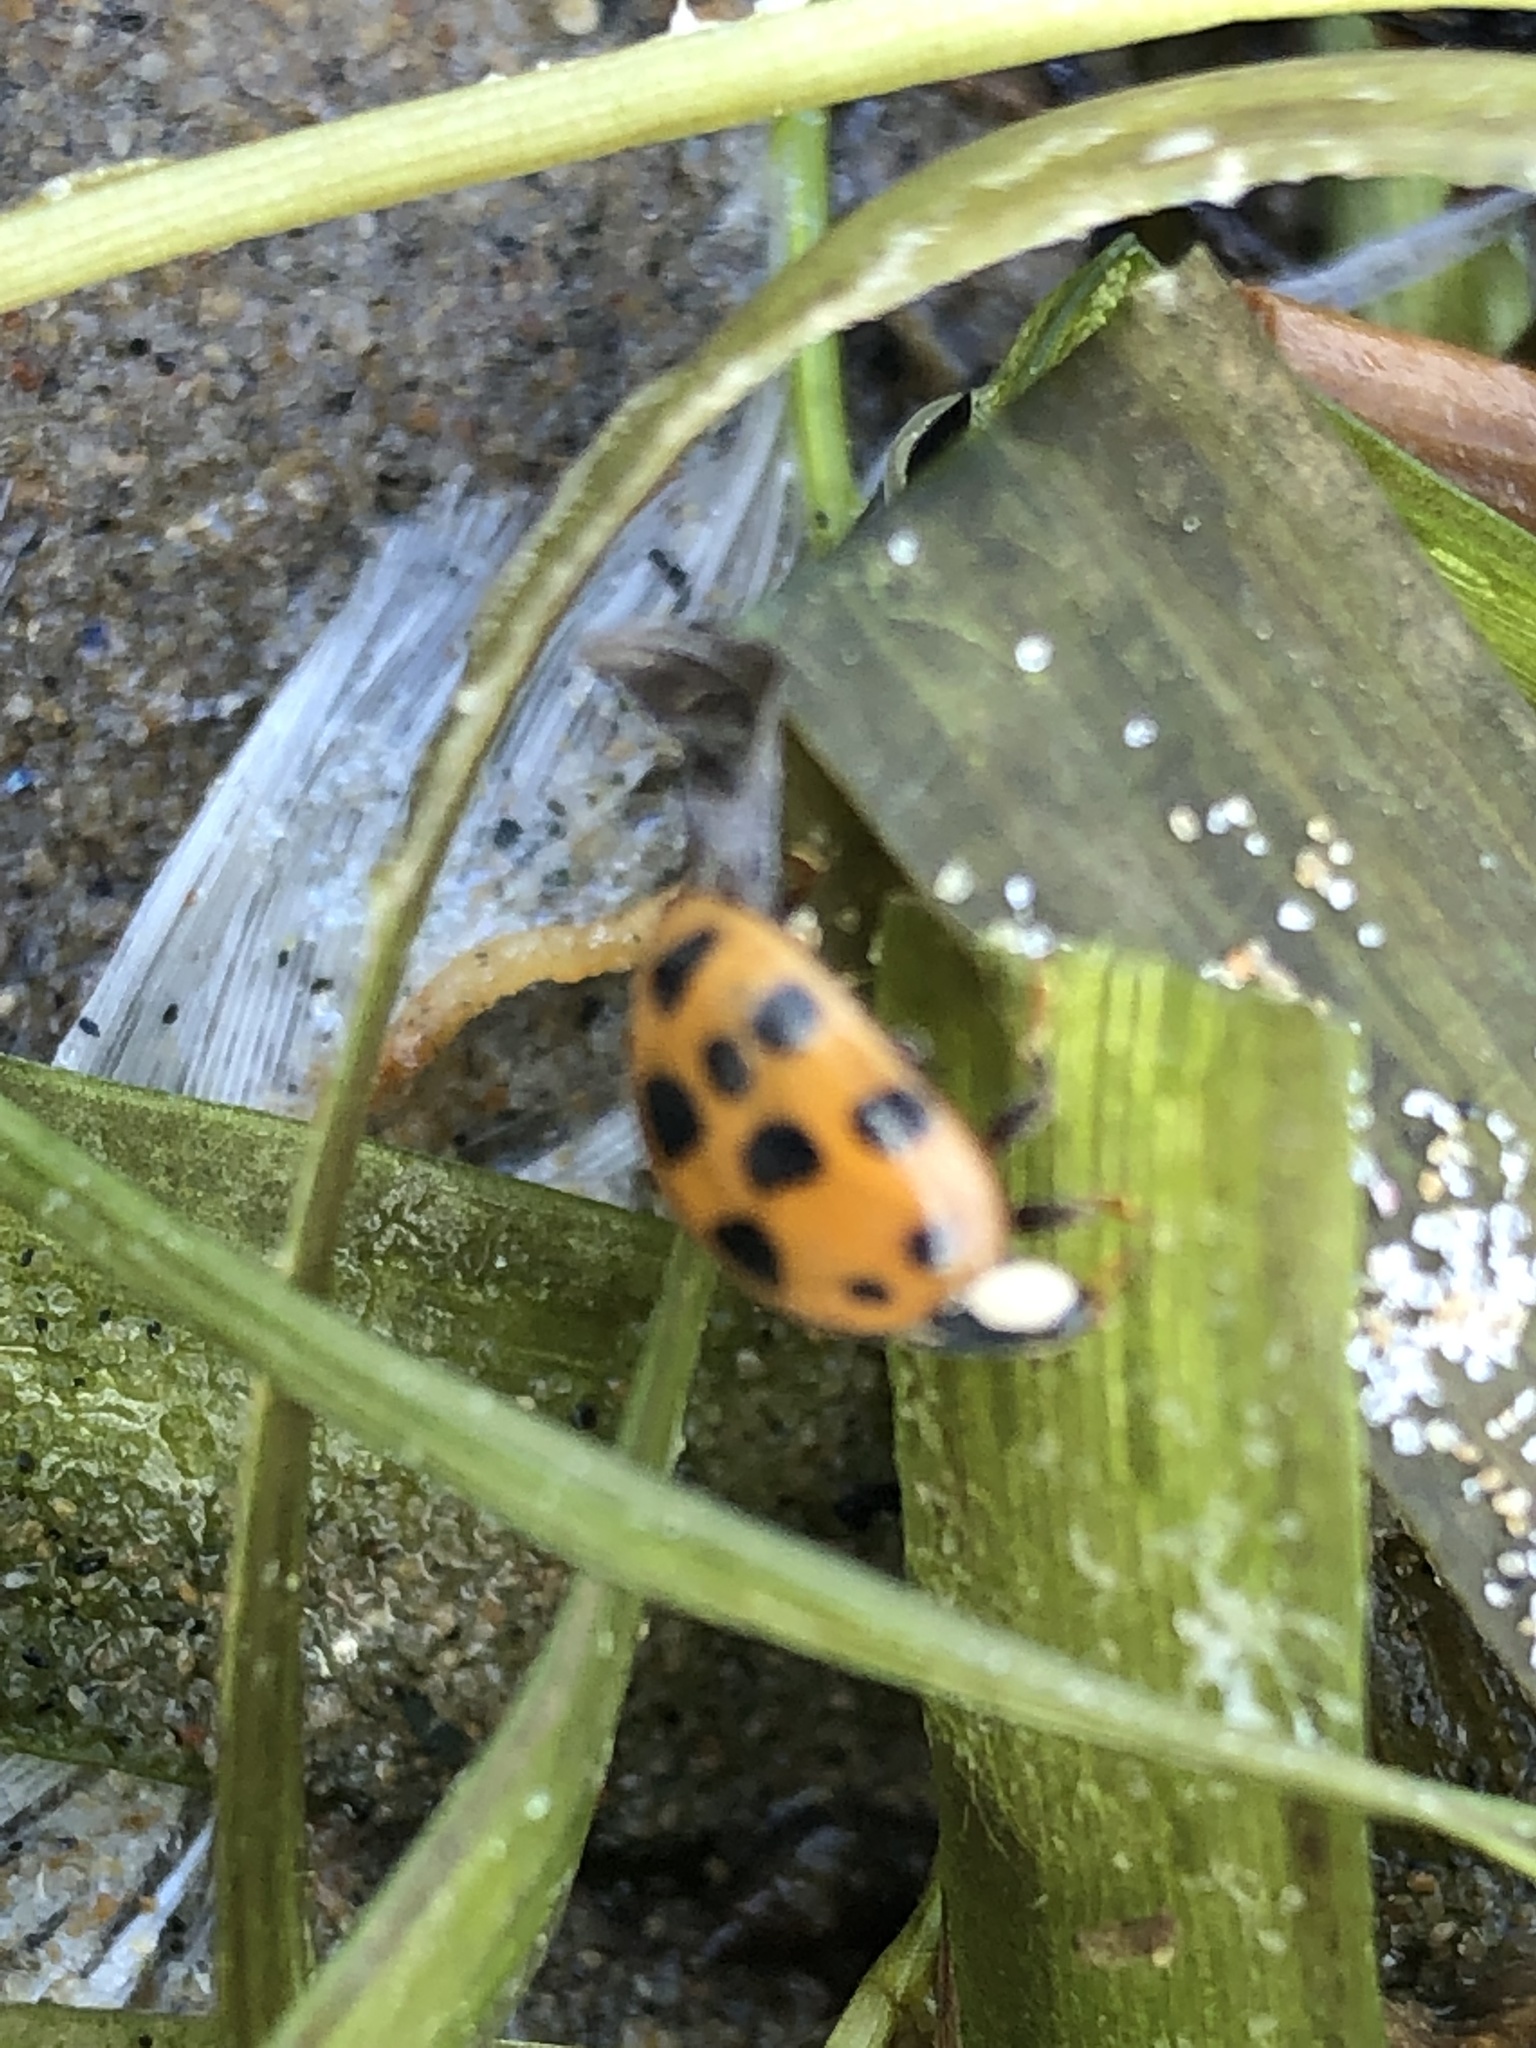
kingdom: Animalia
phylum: Arthropoda
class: Insecta
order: Coleoptera
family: Coccinellidae
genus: Harmonia
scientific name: Harmonia axyridis
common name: Harlequin ladybird
